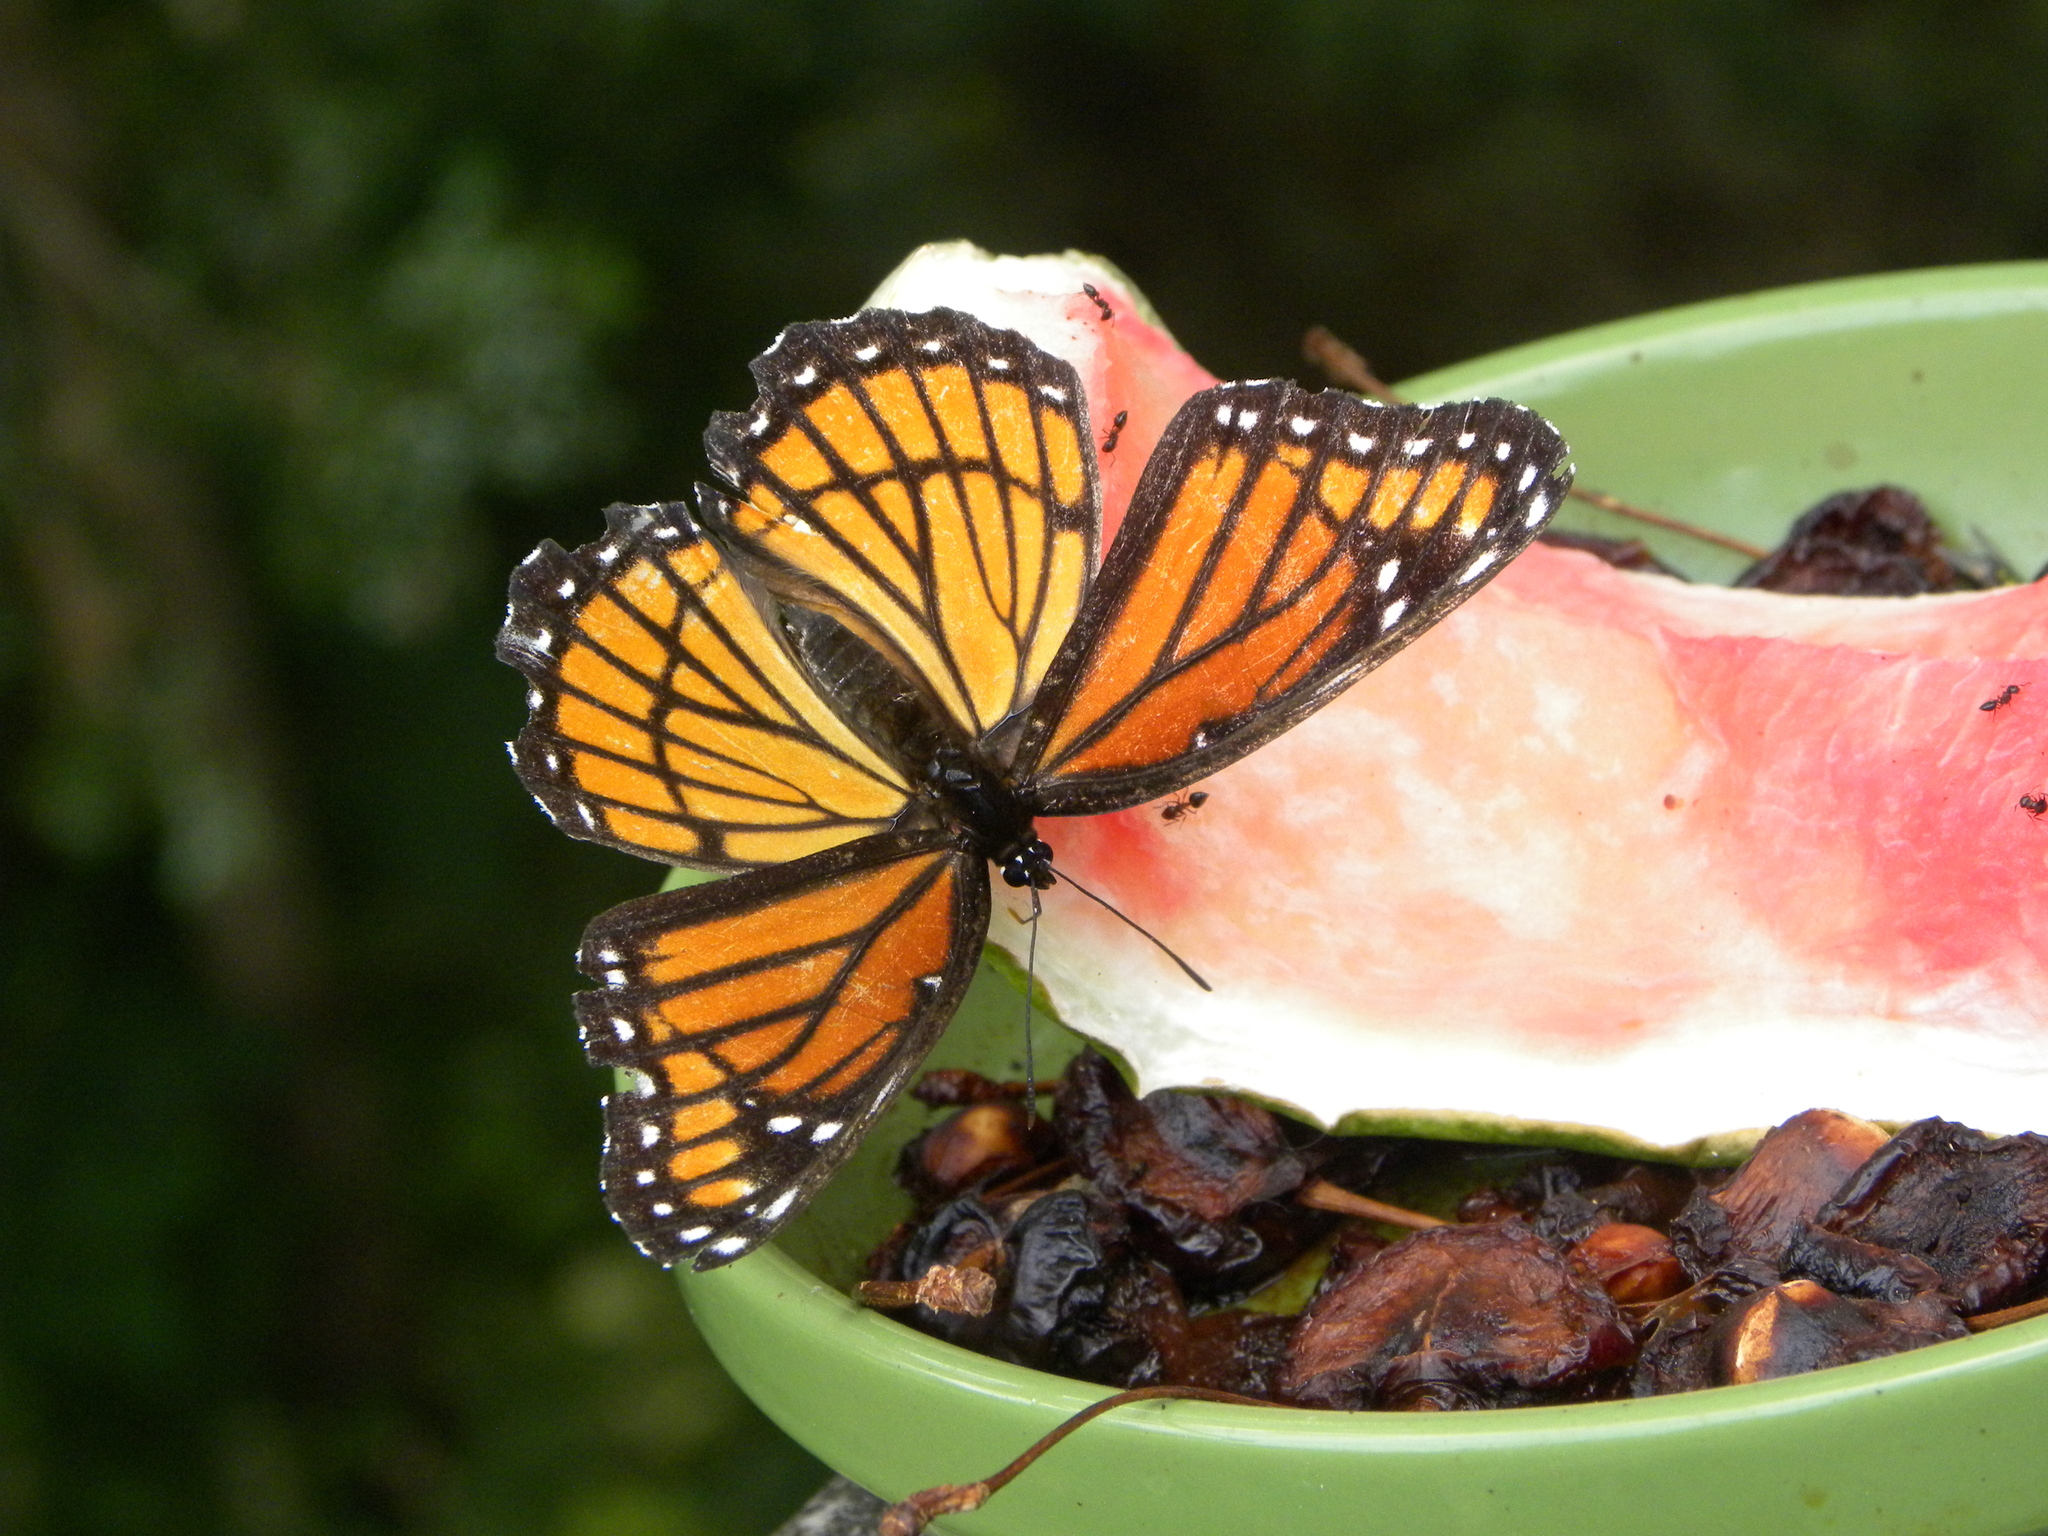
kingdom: Animalia
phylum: Arthropoda
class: Insecta
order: Lepidoptera
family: Nymphalidae
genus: Limenitis
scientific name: Limenitis archippus
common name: Viceroy
